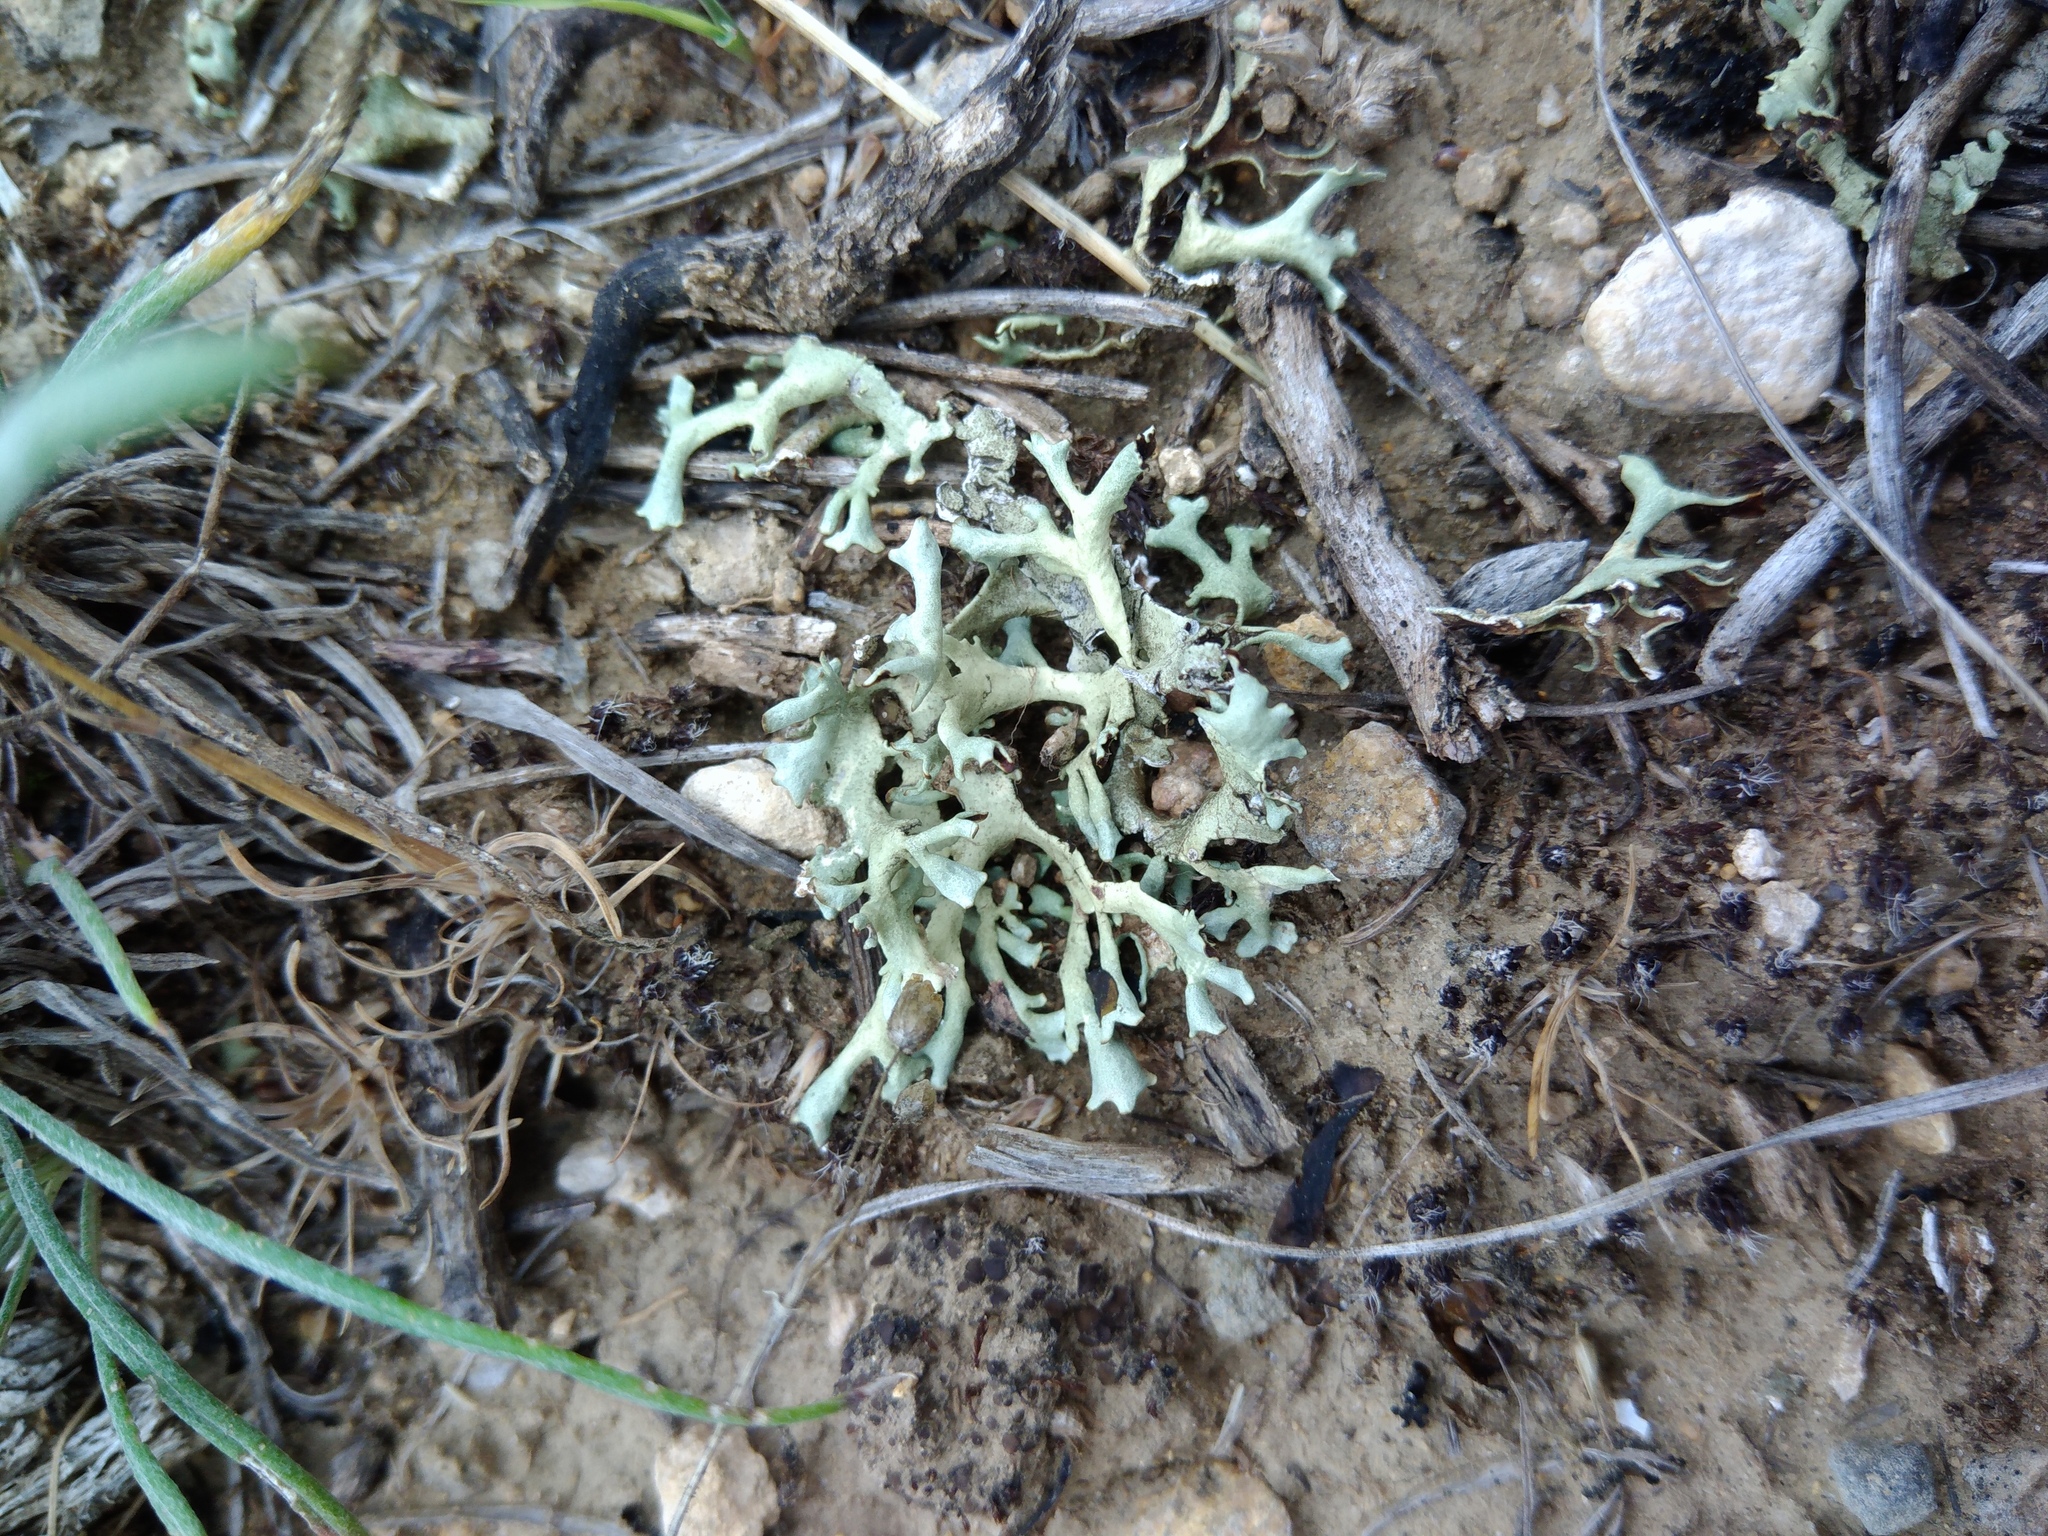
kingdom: Fungi
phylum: Ascomycota
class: Lecanoromycetes
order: Lecanorales
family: Parmeliaceae
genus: Xanthoparmelia
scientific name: Xanthoparmelia camtschadalis
